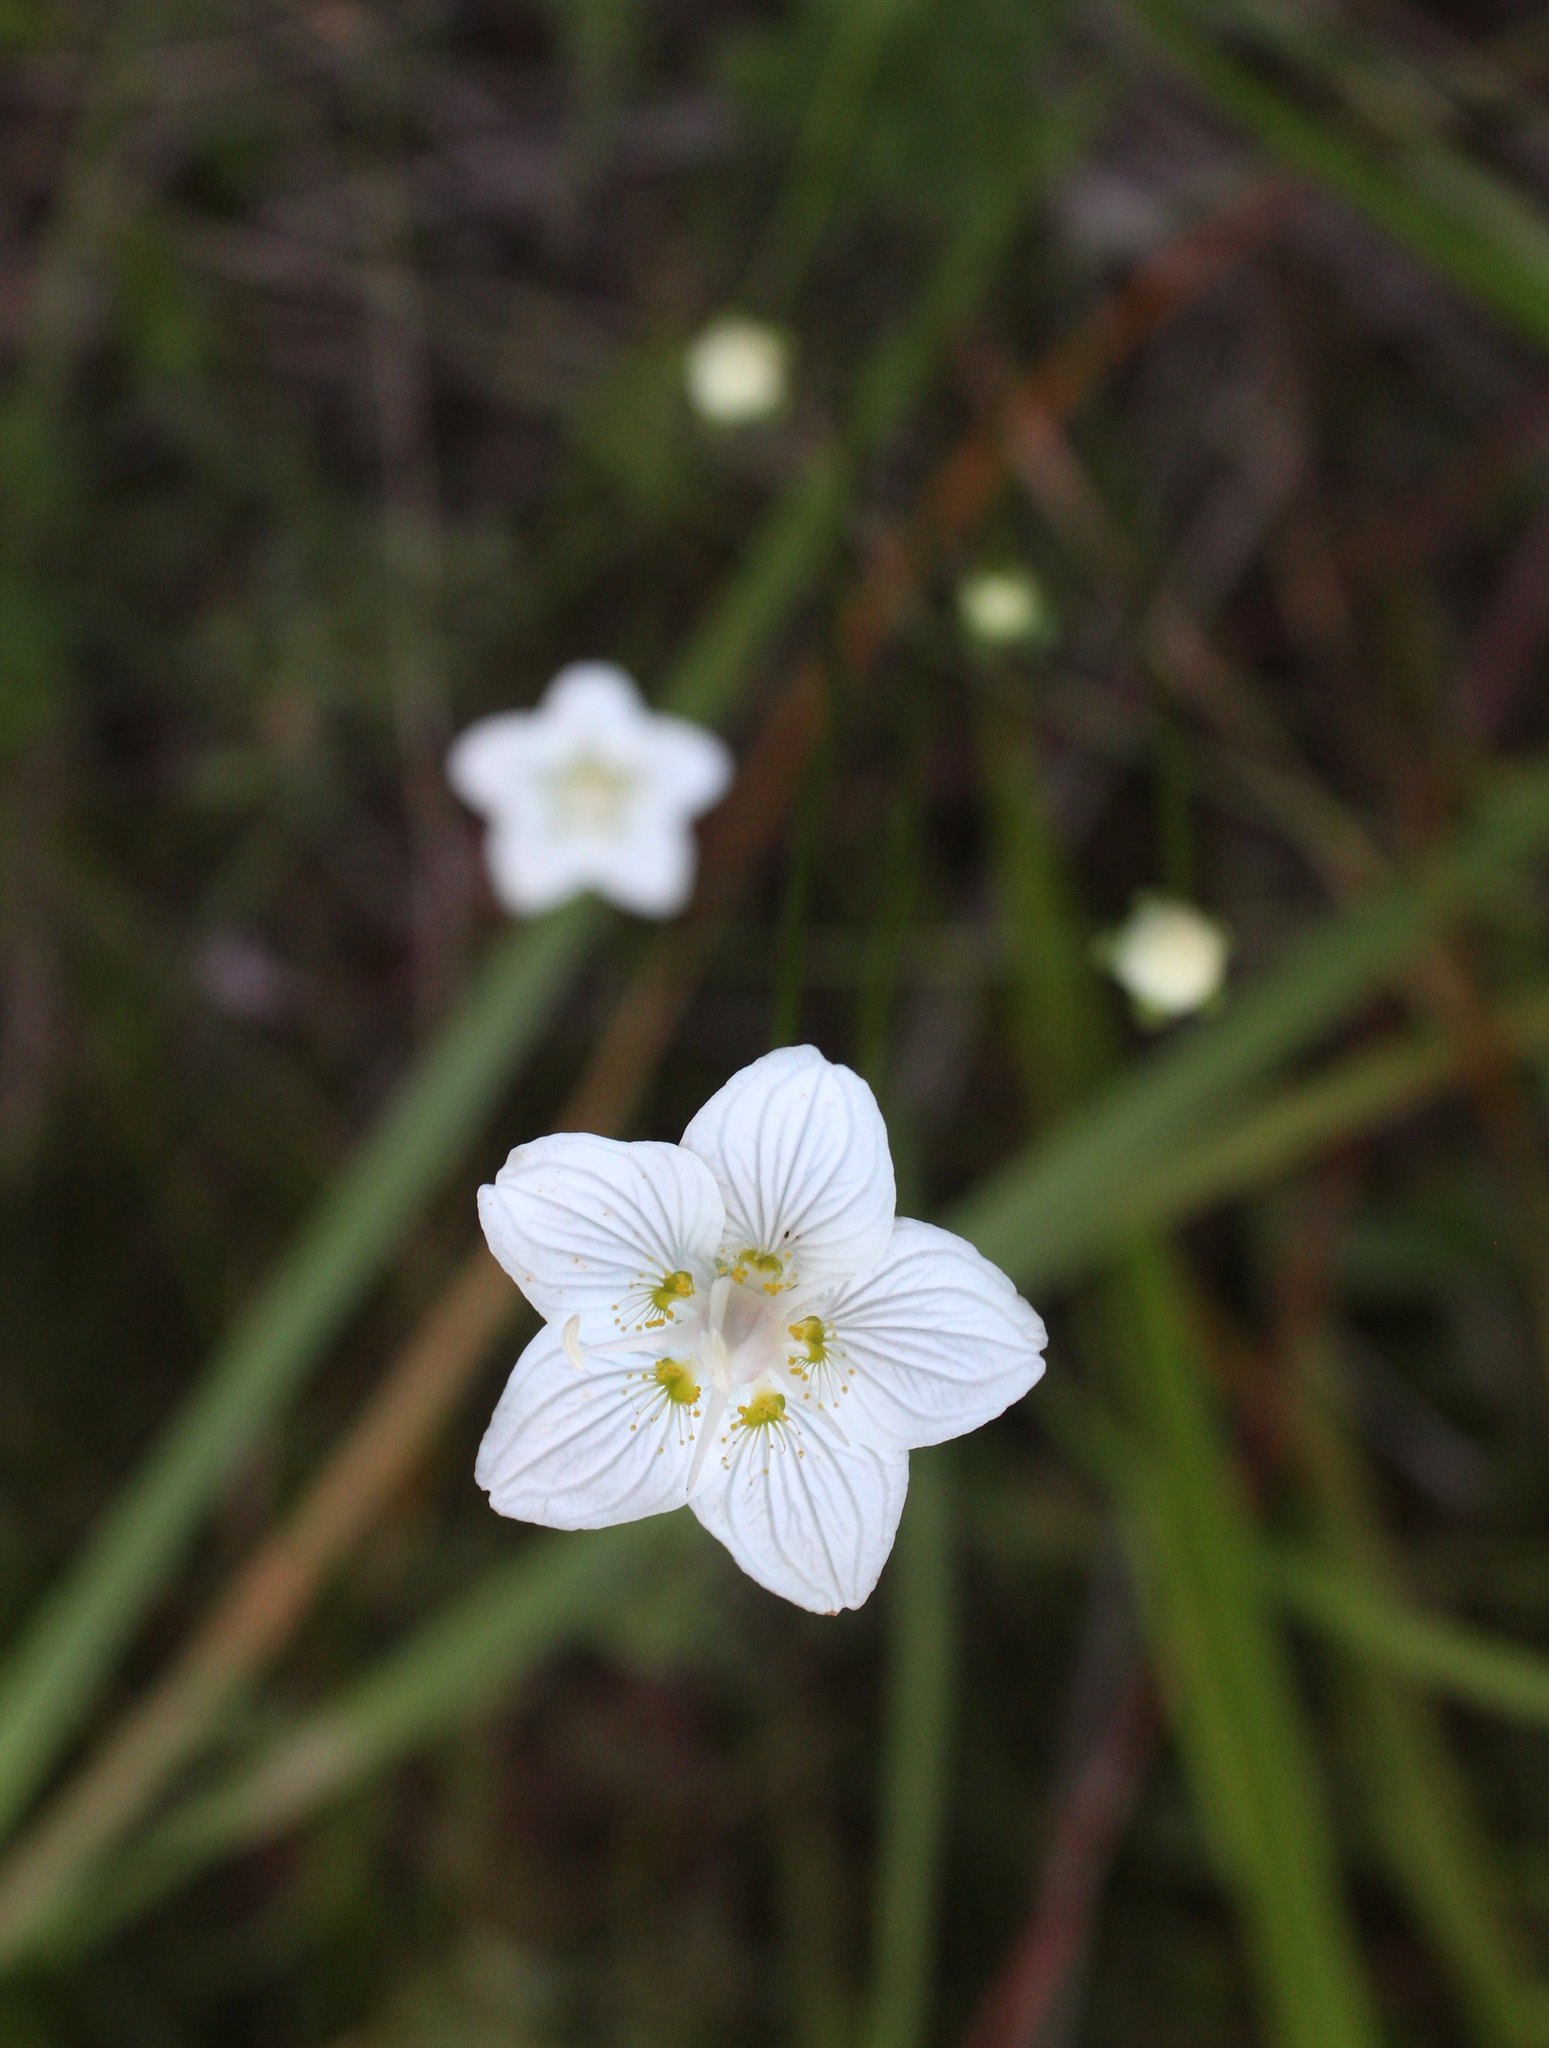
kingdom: Plantae
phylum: Tracheophyta
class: Magnoliopsida
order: Celastrales
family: Parnassiaceae
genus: Parnassia
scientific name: Parnassia palustris
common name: Grass-of-parnassus
